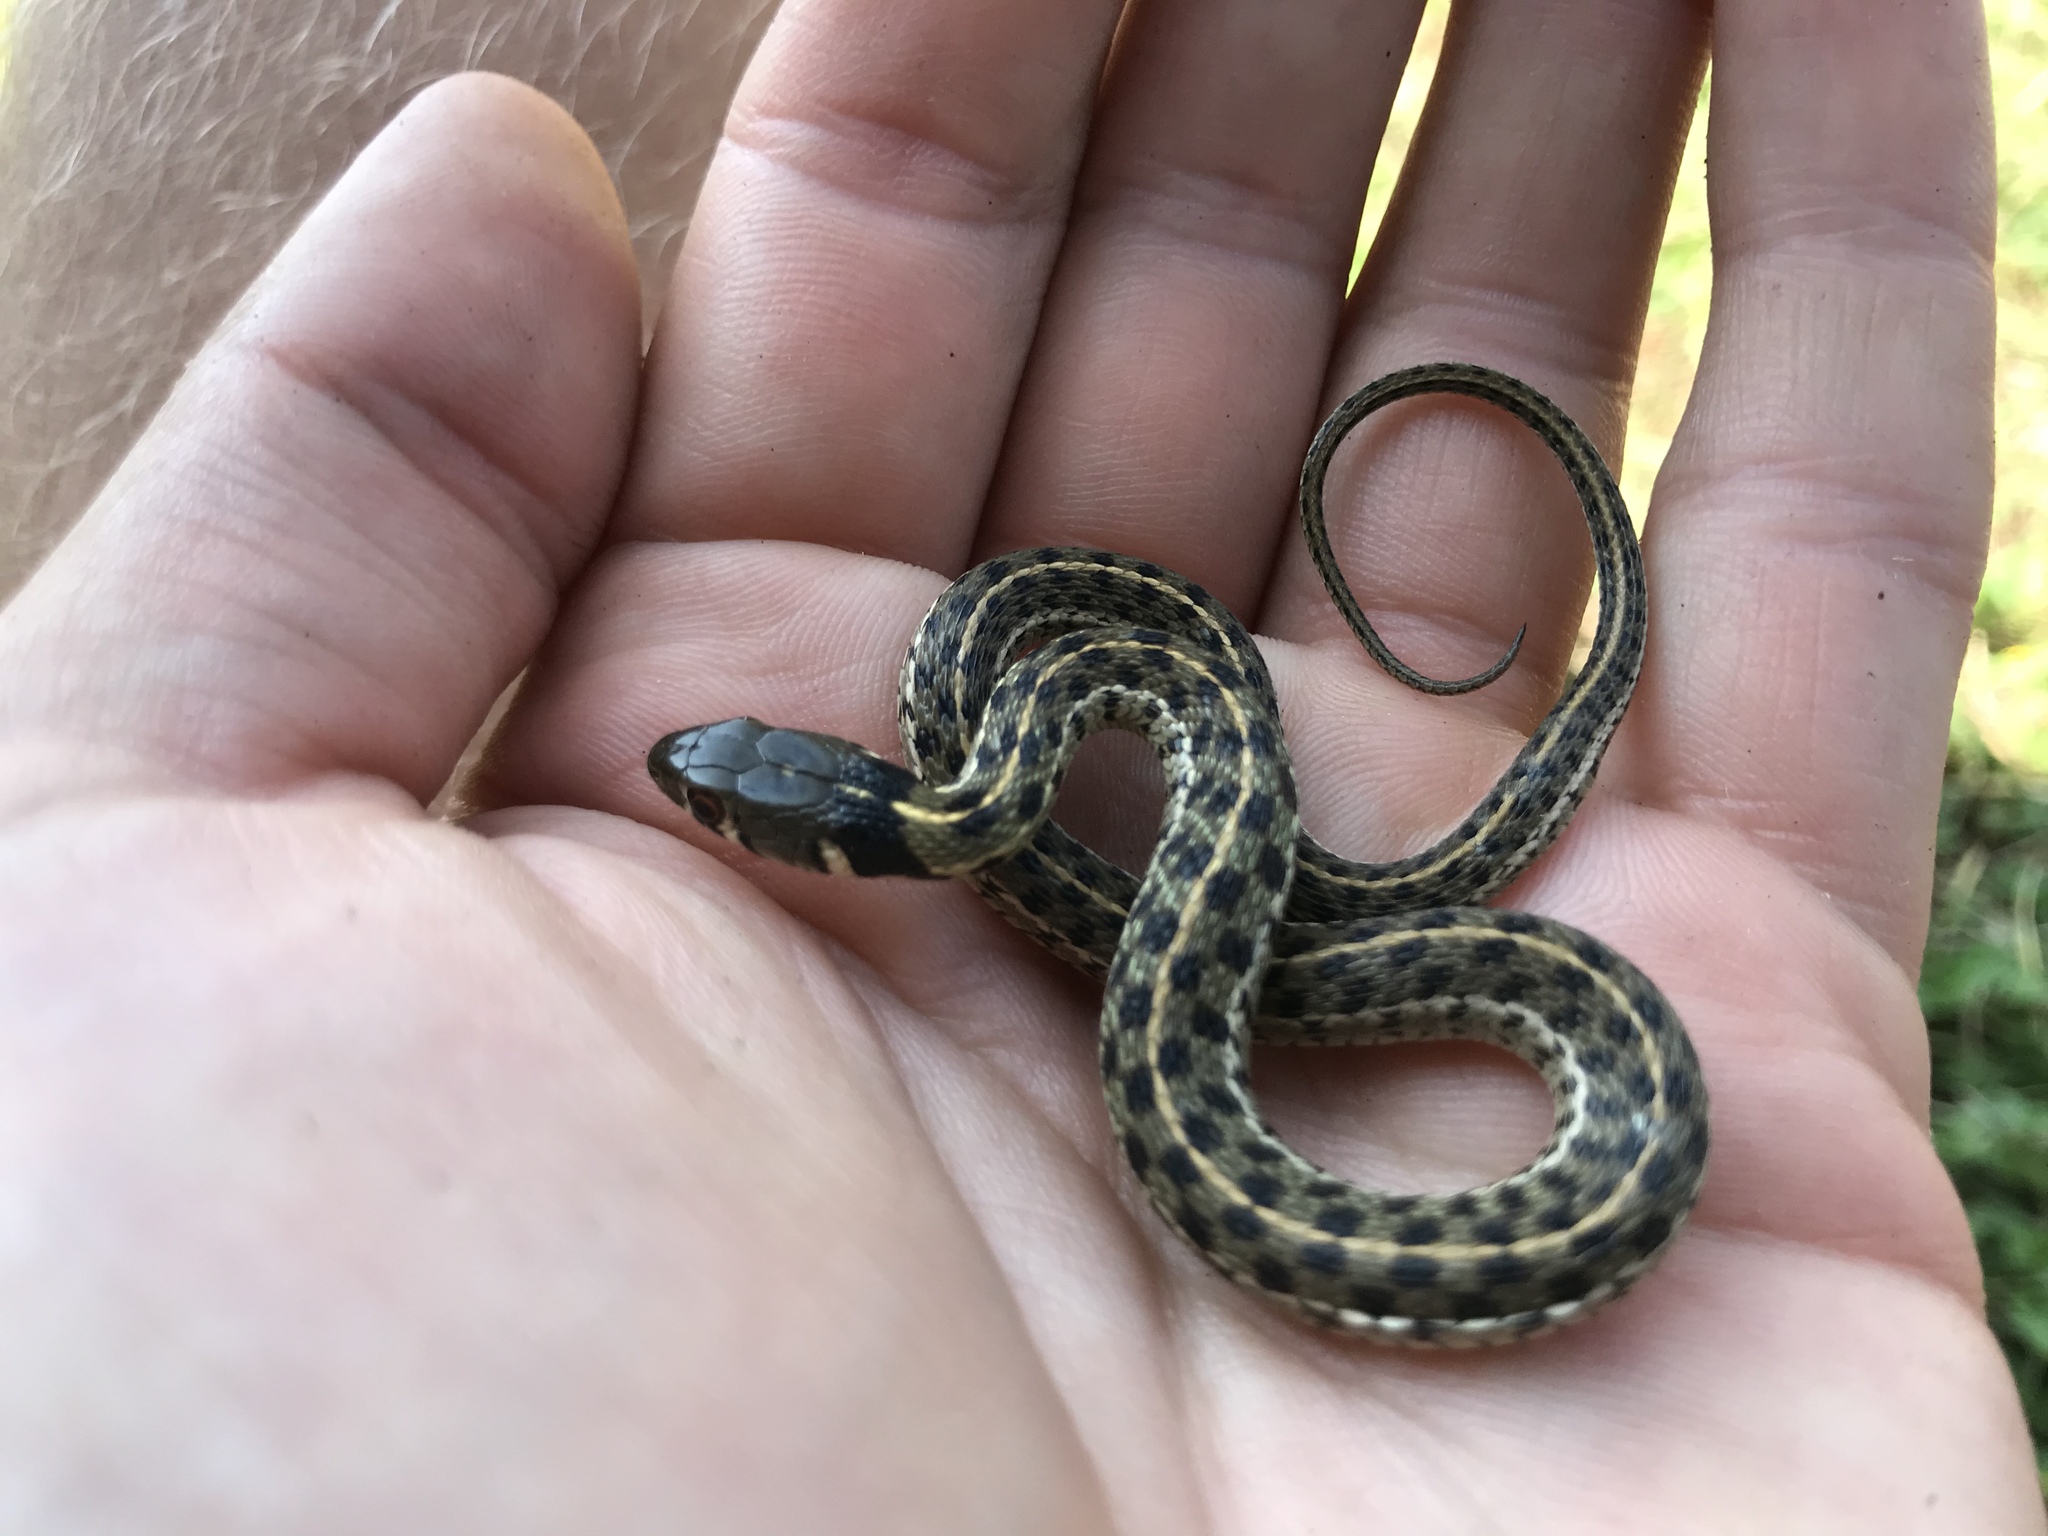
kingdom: Animalia
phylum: Chordata
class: Squamata
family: Colubridae
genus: Thamnophis
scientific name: Thamnophis marcianus
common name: Checkered garter snake
